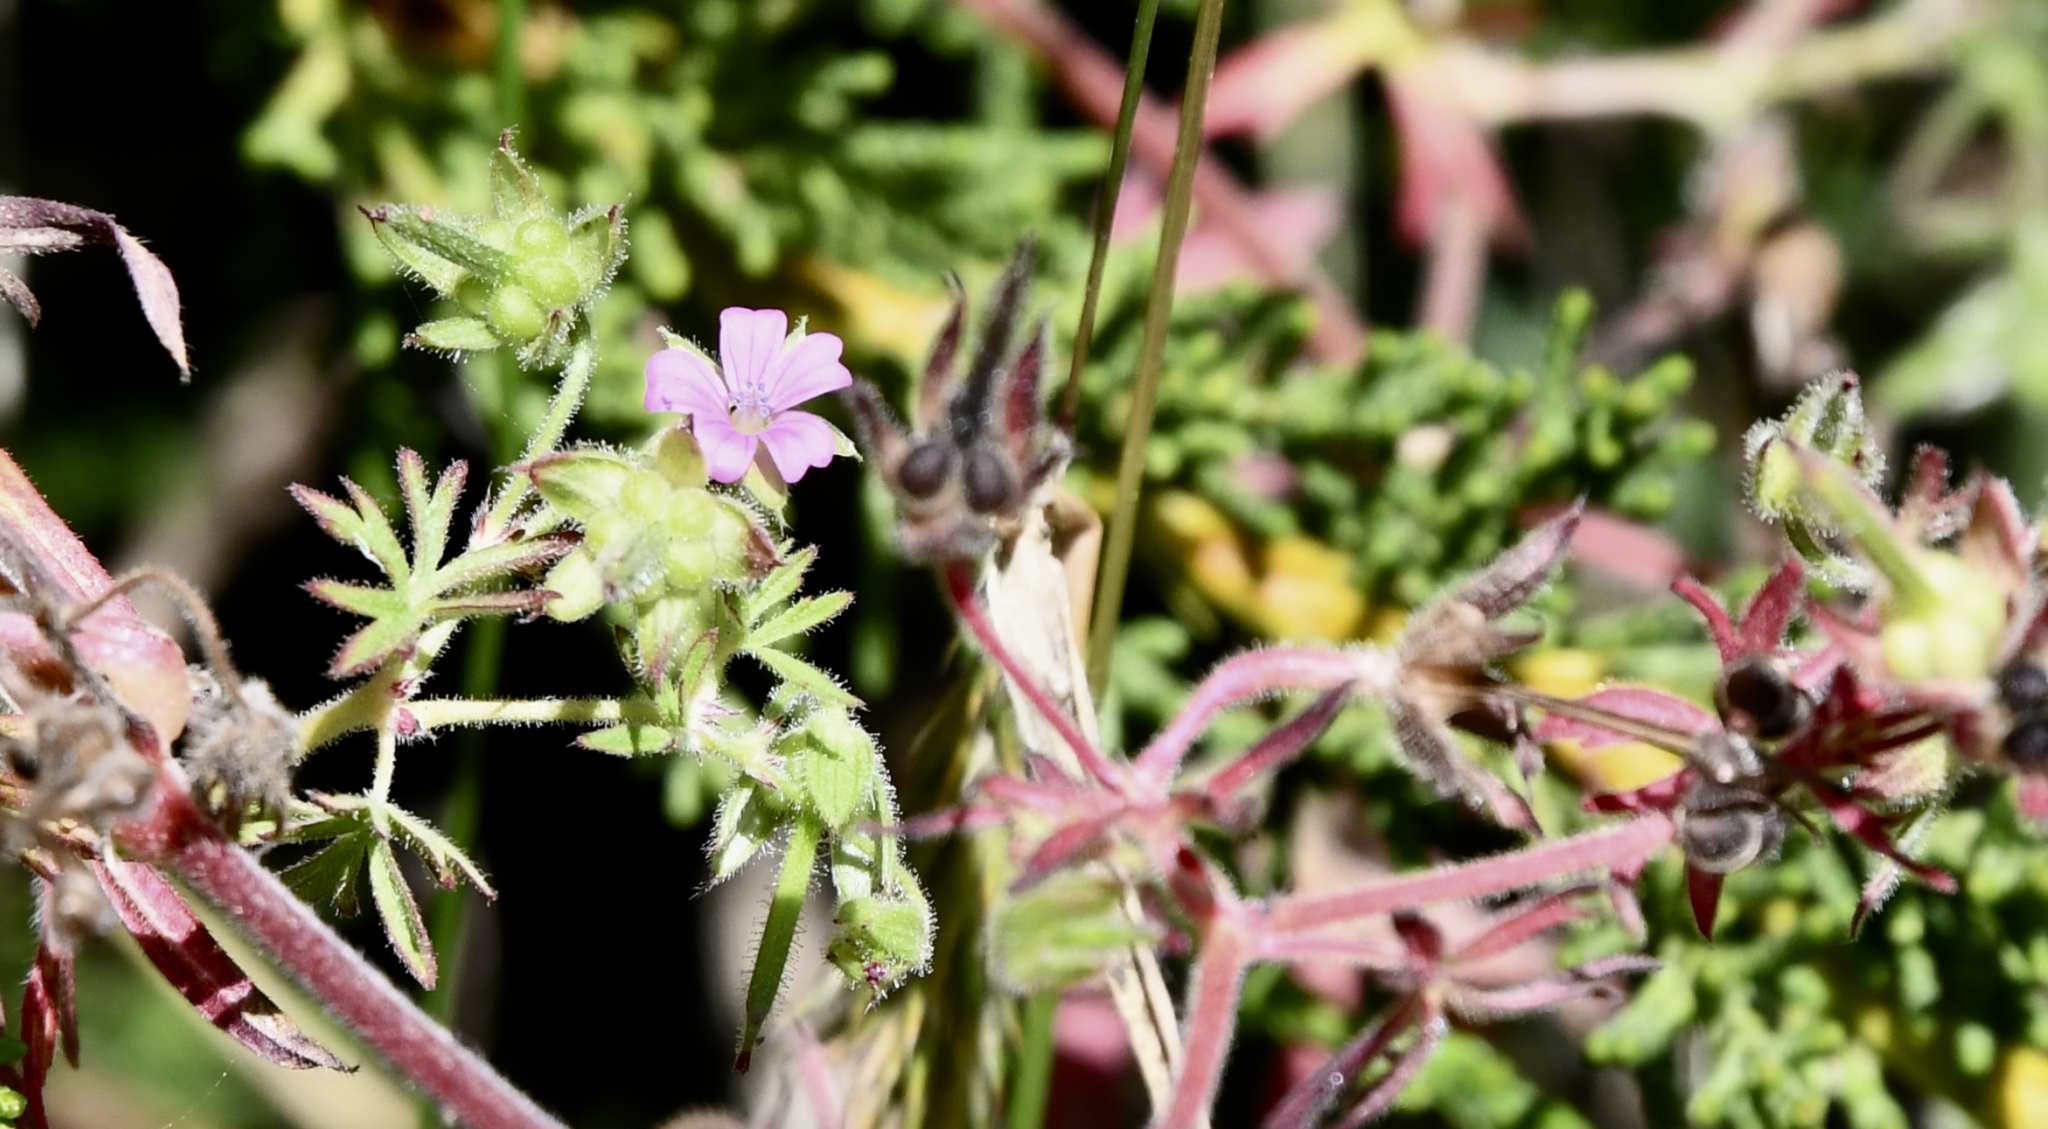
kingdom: Plantae
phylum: Tracheophyta
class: Magnoliopsida
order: Geraniales
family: Geraniaceae
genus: Geranium
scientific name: Geranium dissectum
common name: Cut-leaved crane's-bill
